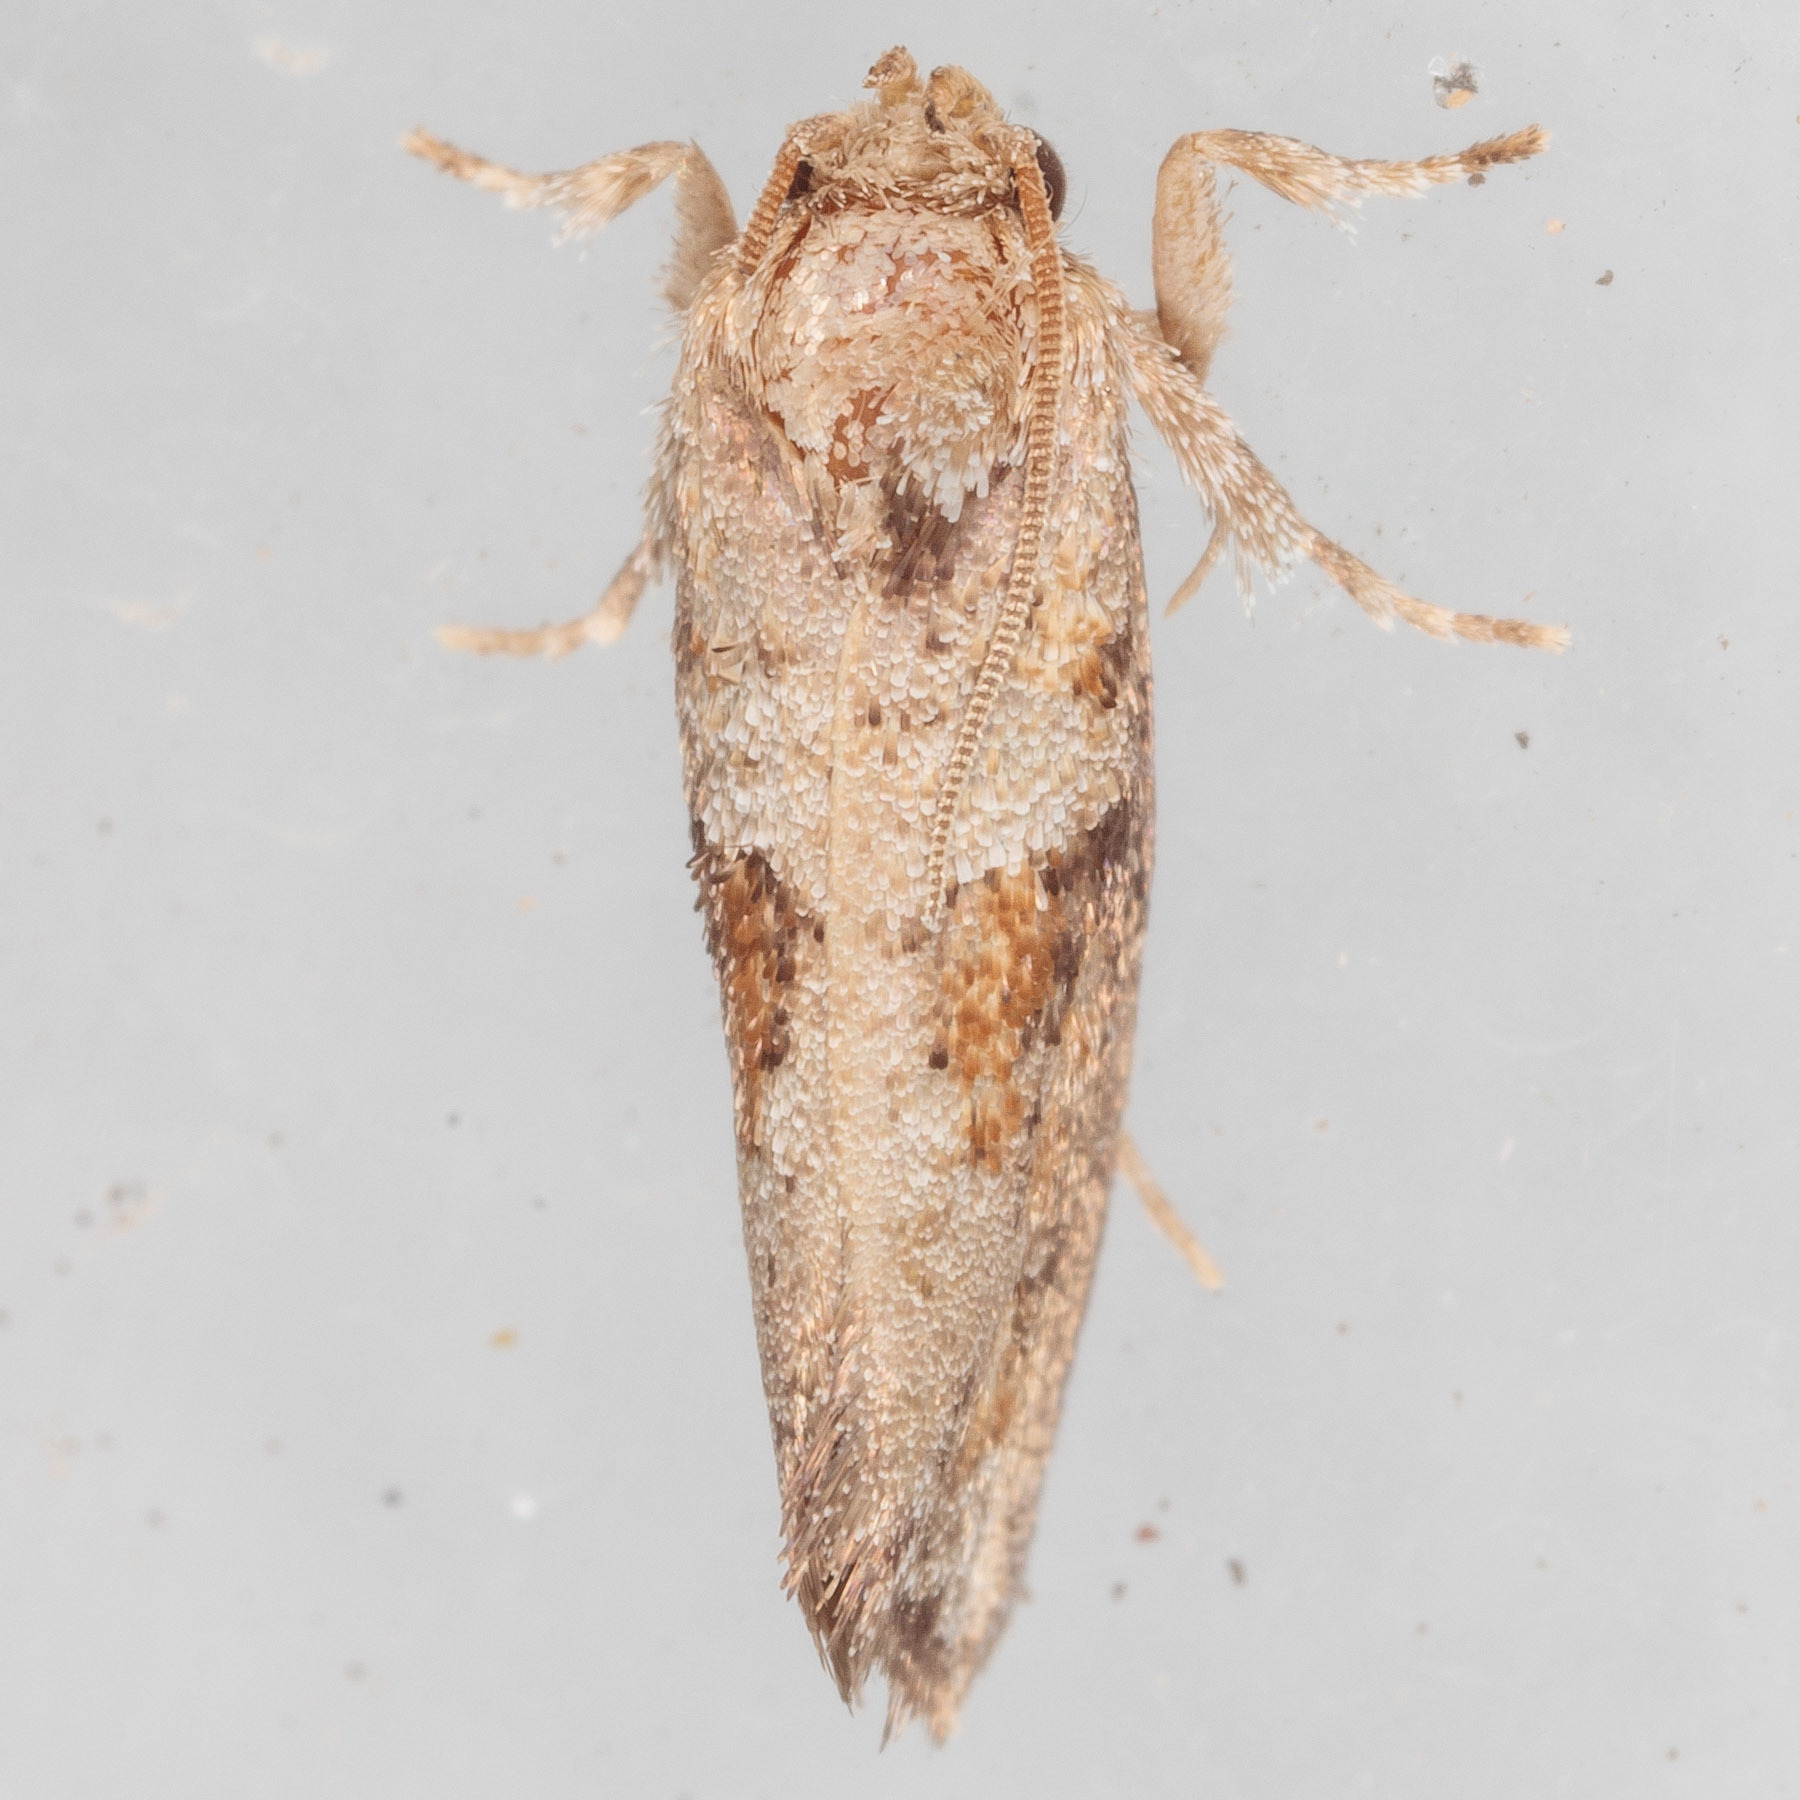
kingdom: Animalia
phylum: Arthropoda
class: Insecta
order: Lepidoptera
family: Tineidae
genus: Acrolophus
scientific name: Acrolophus piger
